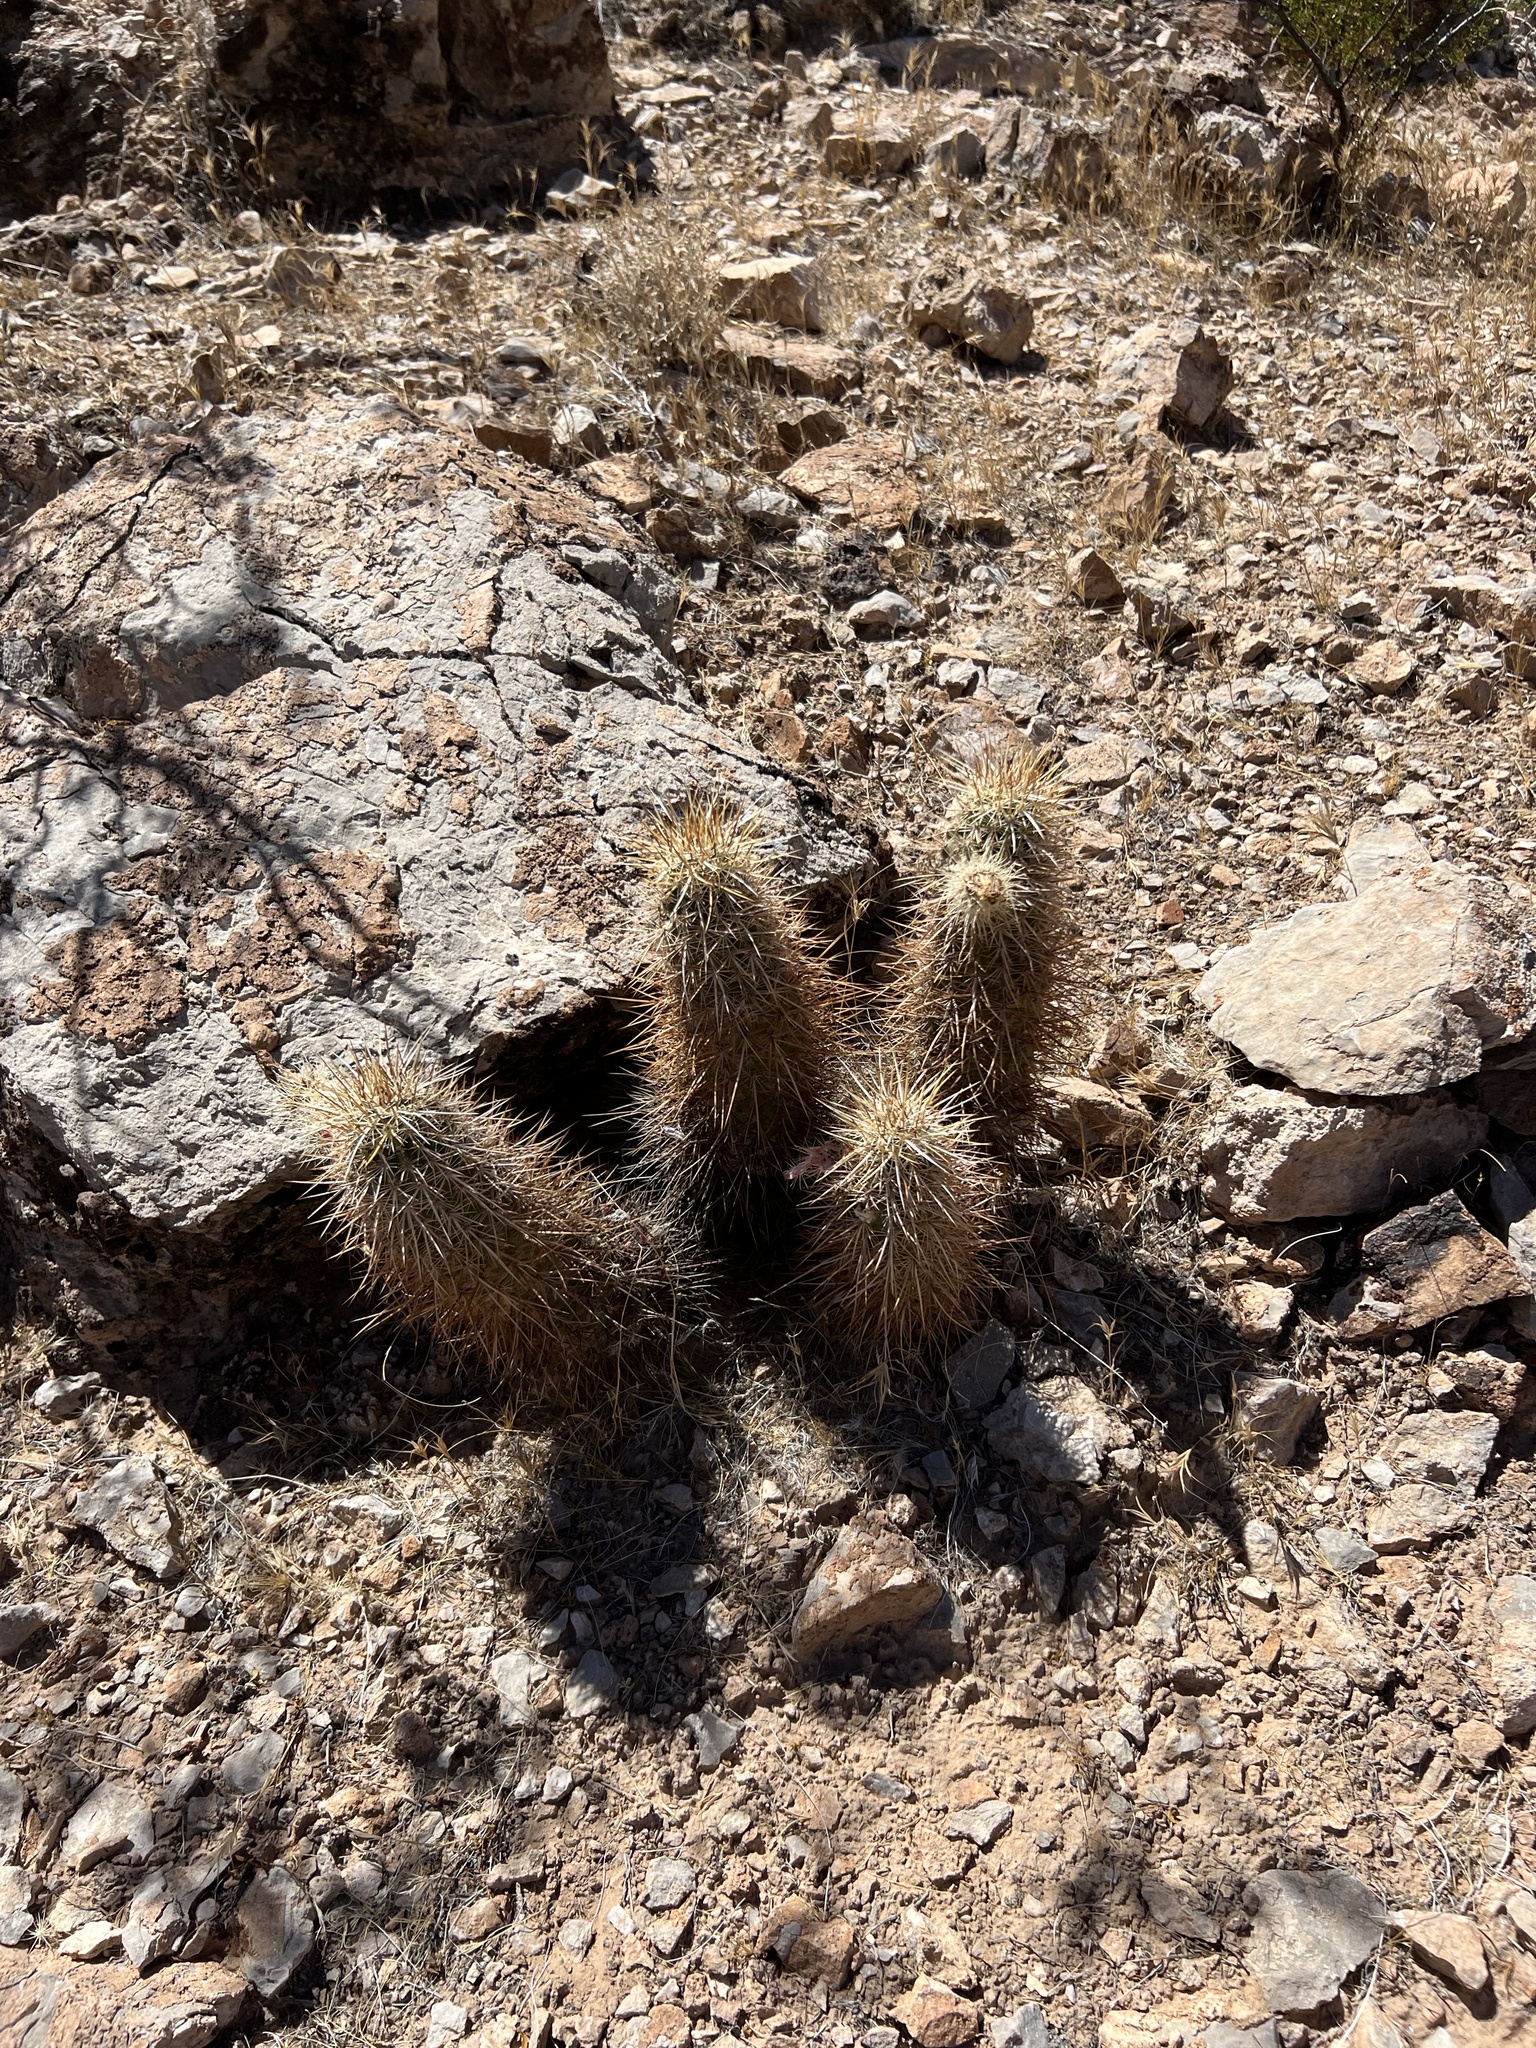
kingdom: Plantae
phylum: Tracheophyta
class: Magnoliopsida
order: Caryophyllales
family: Cactaceae
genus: Echinocereus
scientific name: Echinocereus engelmannii
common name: Engelmann's hedgehog cactus
